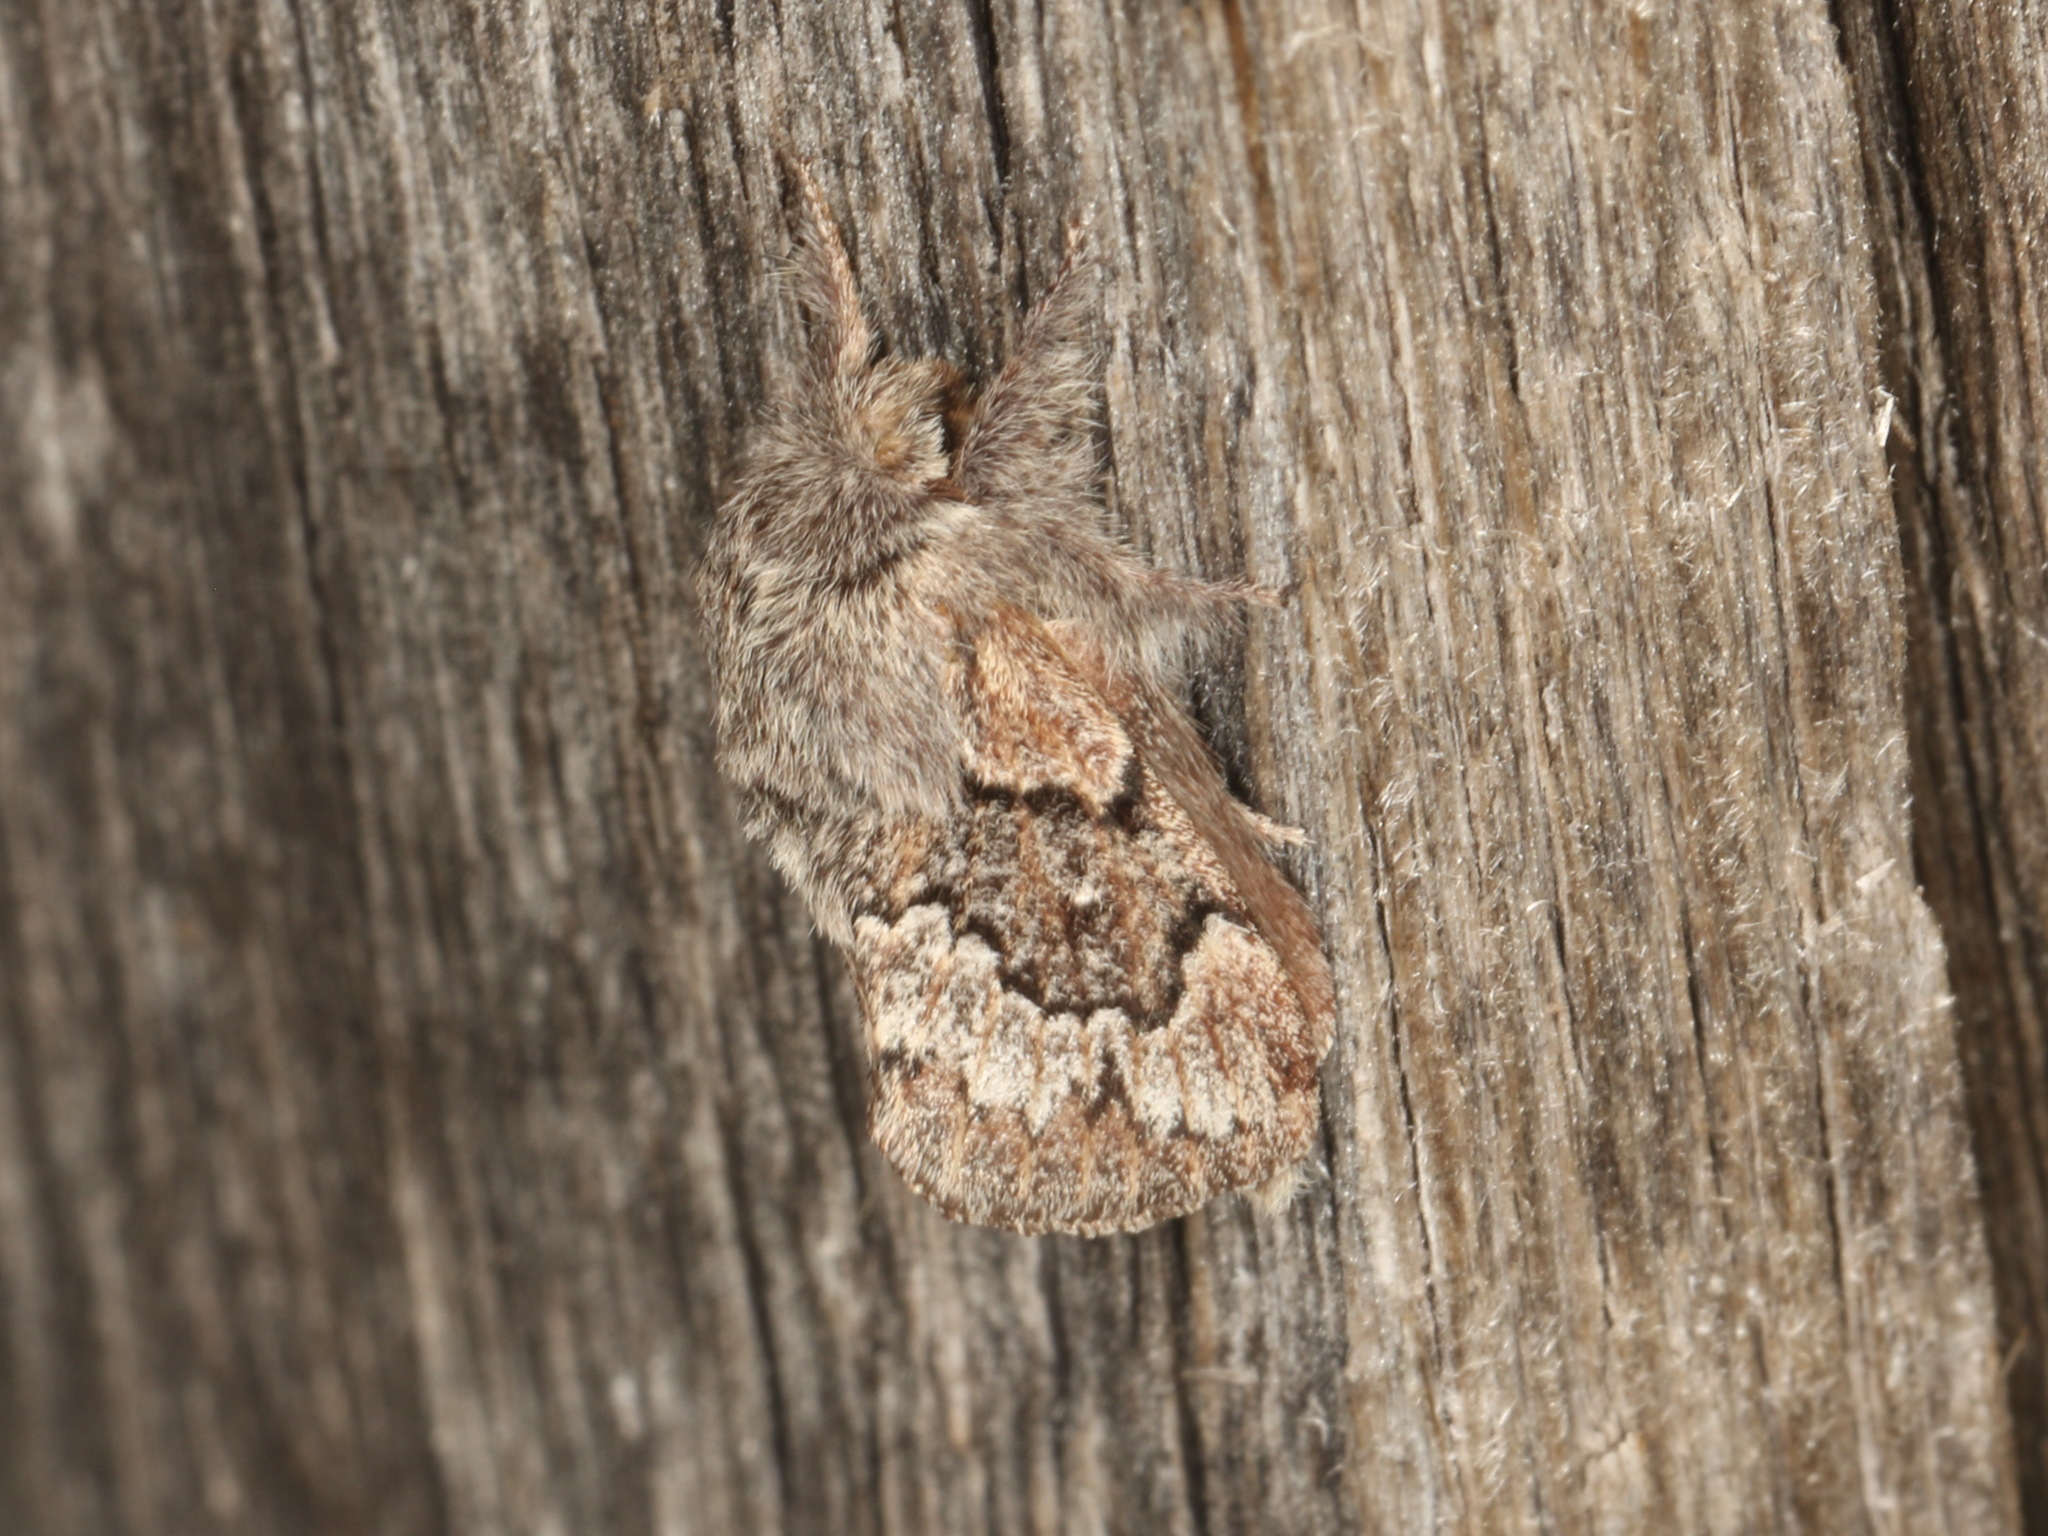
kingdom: Animalia
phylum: Arthropoda
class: Insecta
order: Lepidoptera
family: Lasiocampidae
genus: Pernattia
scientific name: Pernattia pusilla
